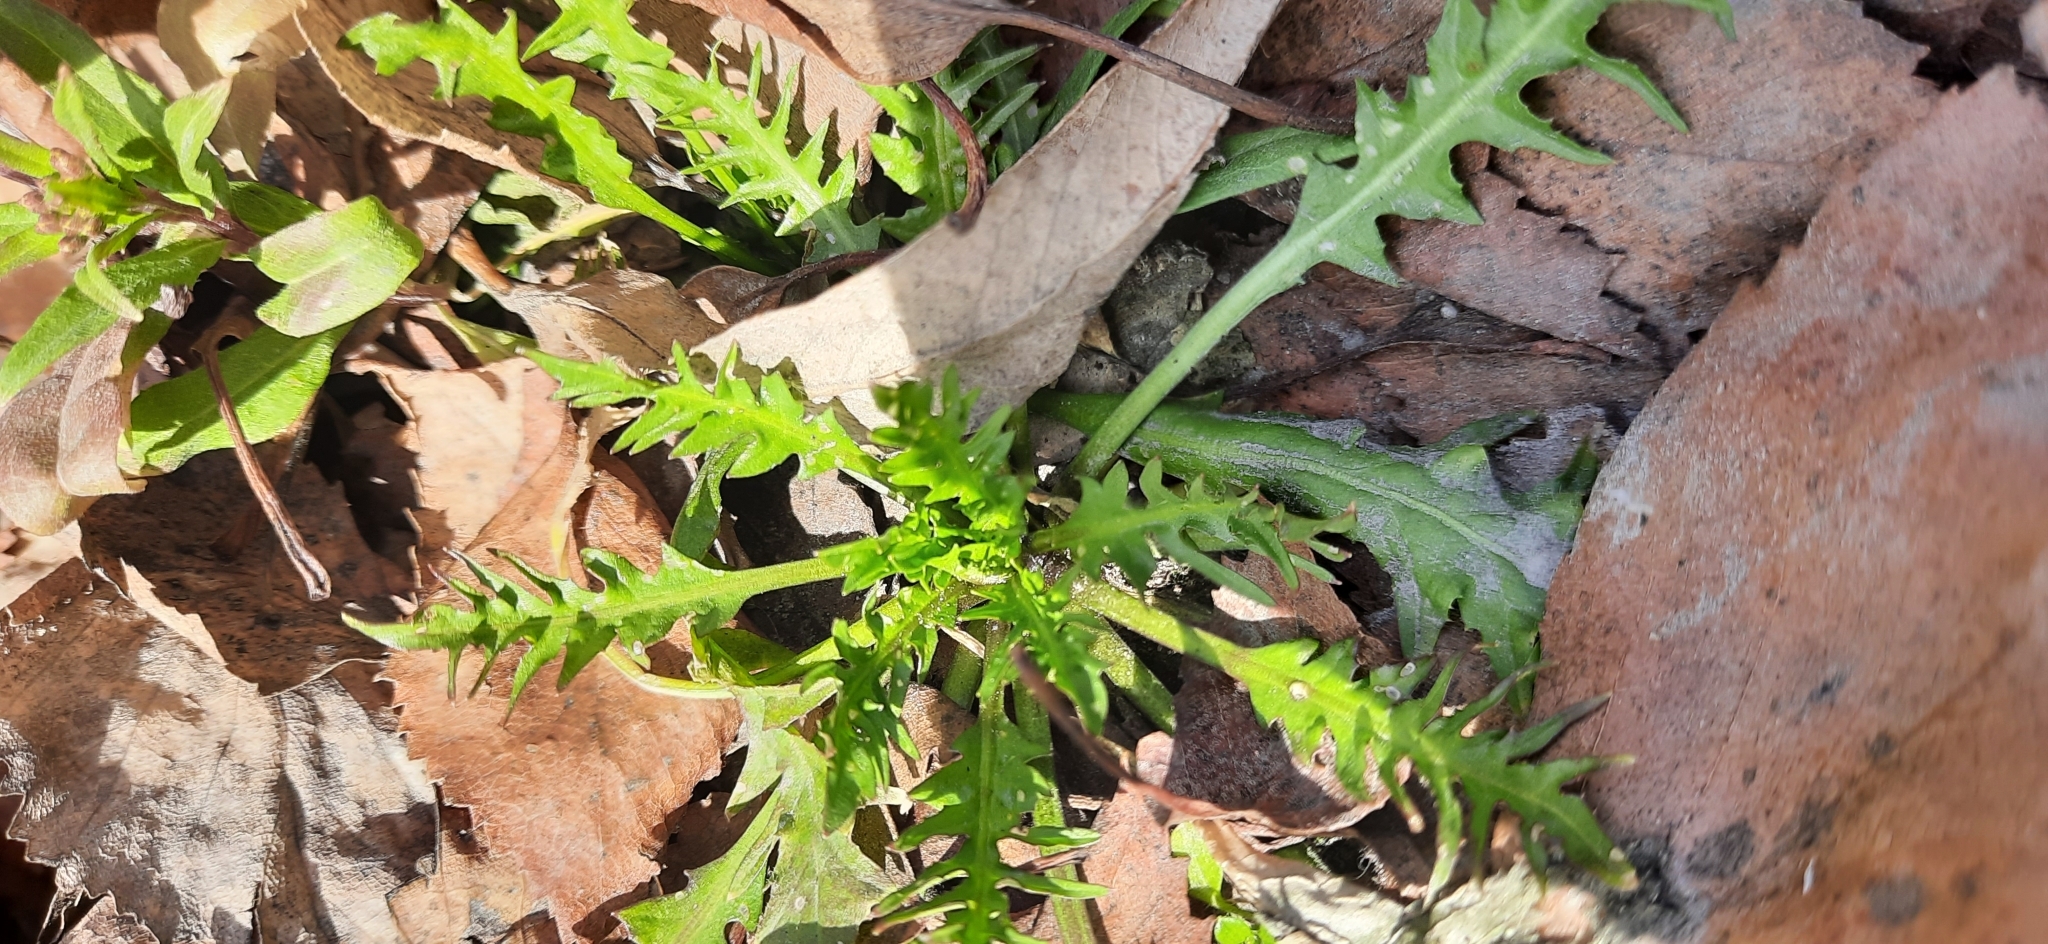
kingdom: Plantae
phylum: Tracheophyta
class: Magnoliopsida
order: Brassicales
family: Brassicaceae
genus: Capsella
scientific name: Capsella bursa-pastoris
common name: Shepherd's purse
